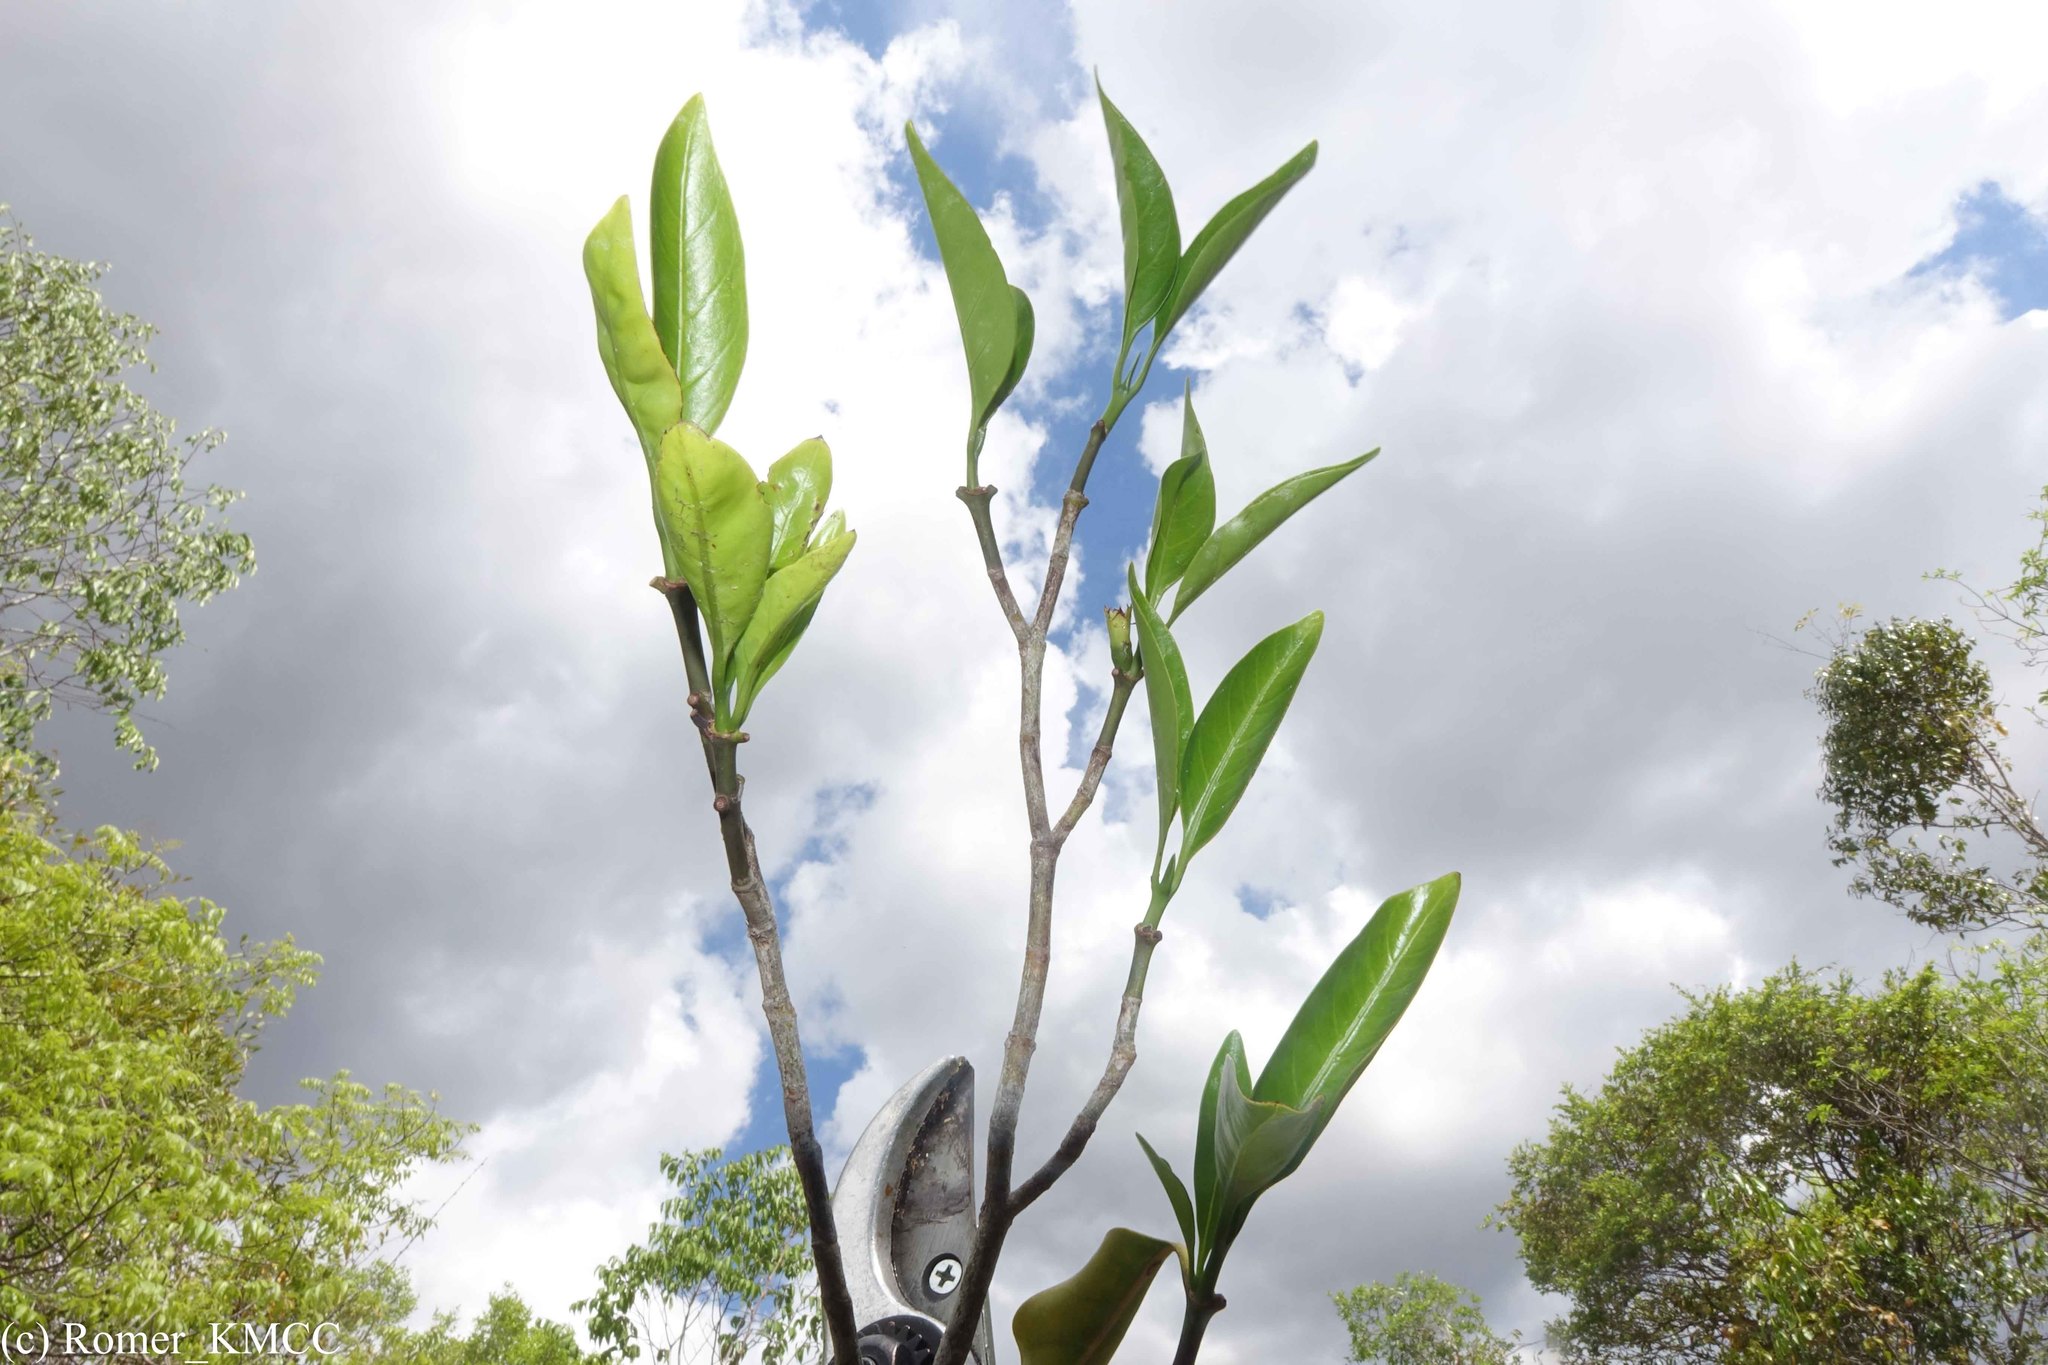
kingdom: Plantae
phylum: Tracheophyta
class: Magnoliopsida
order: Gentianales
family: Rubiaceae
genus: Hyperacanthus
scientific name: Hyperacanthus perrieri
